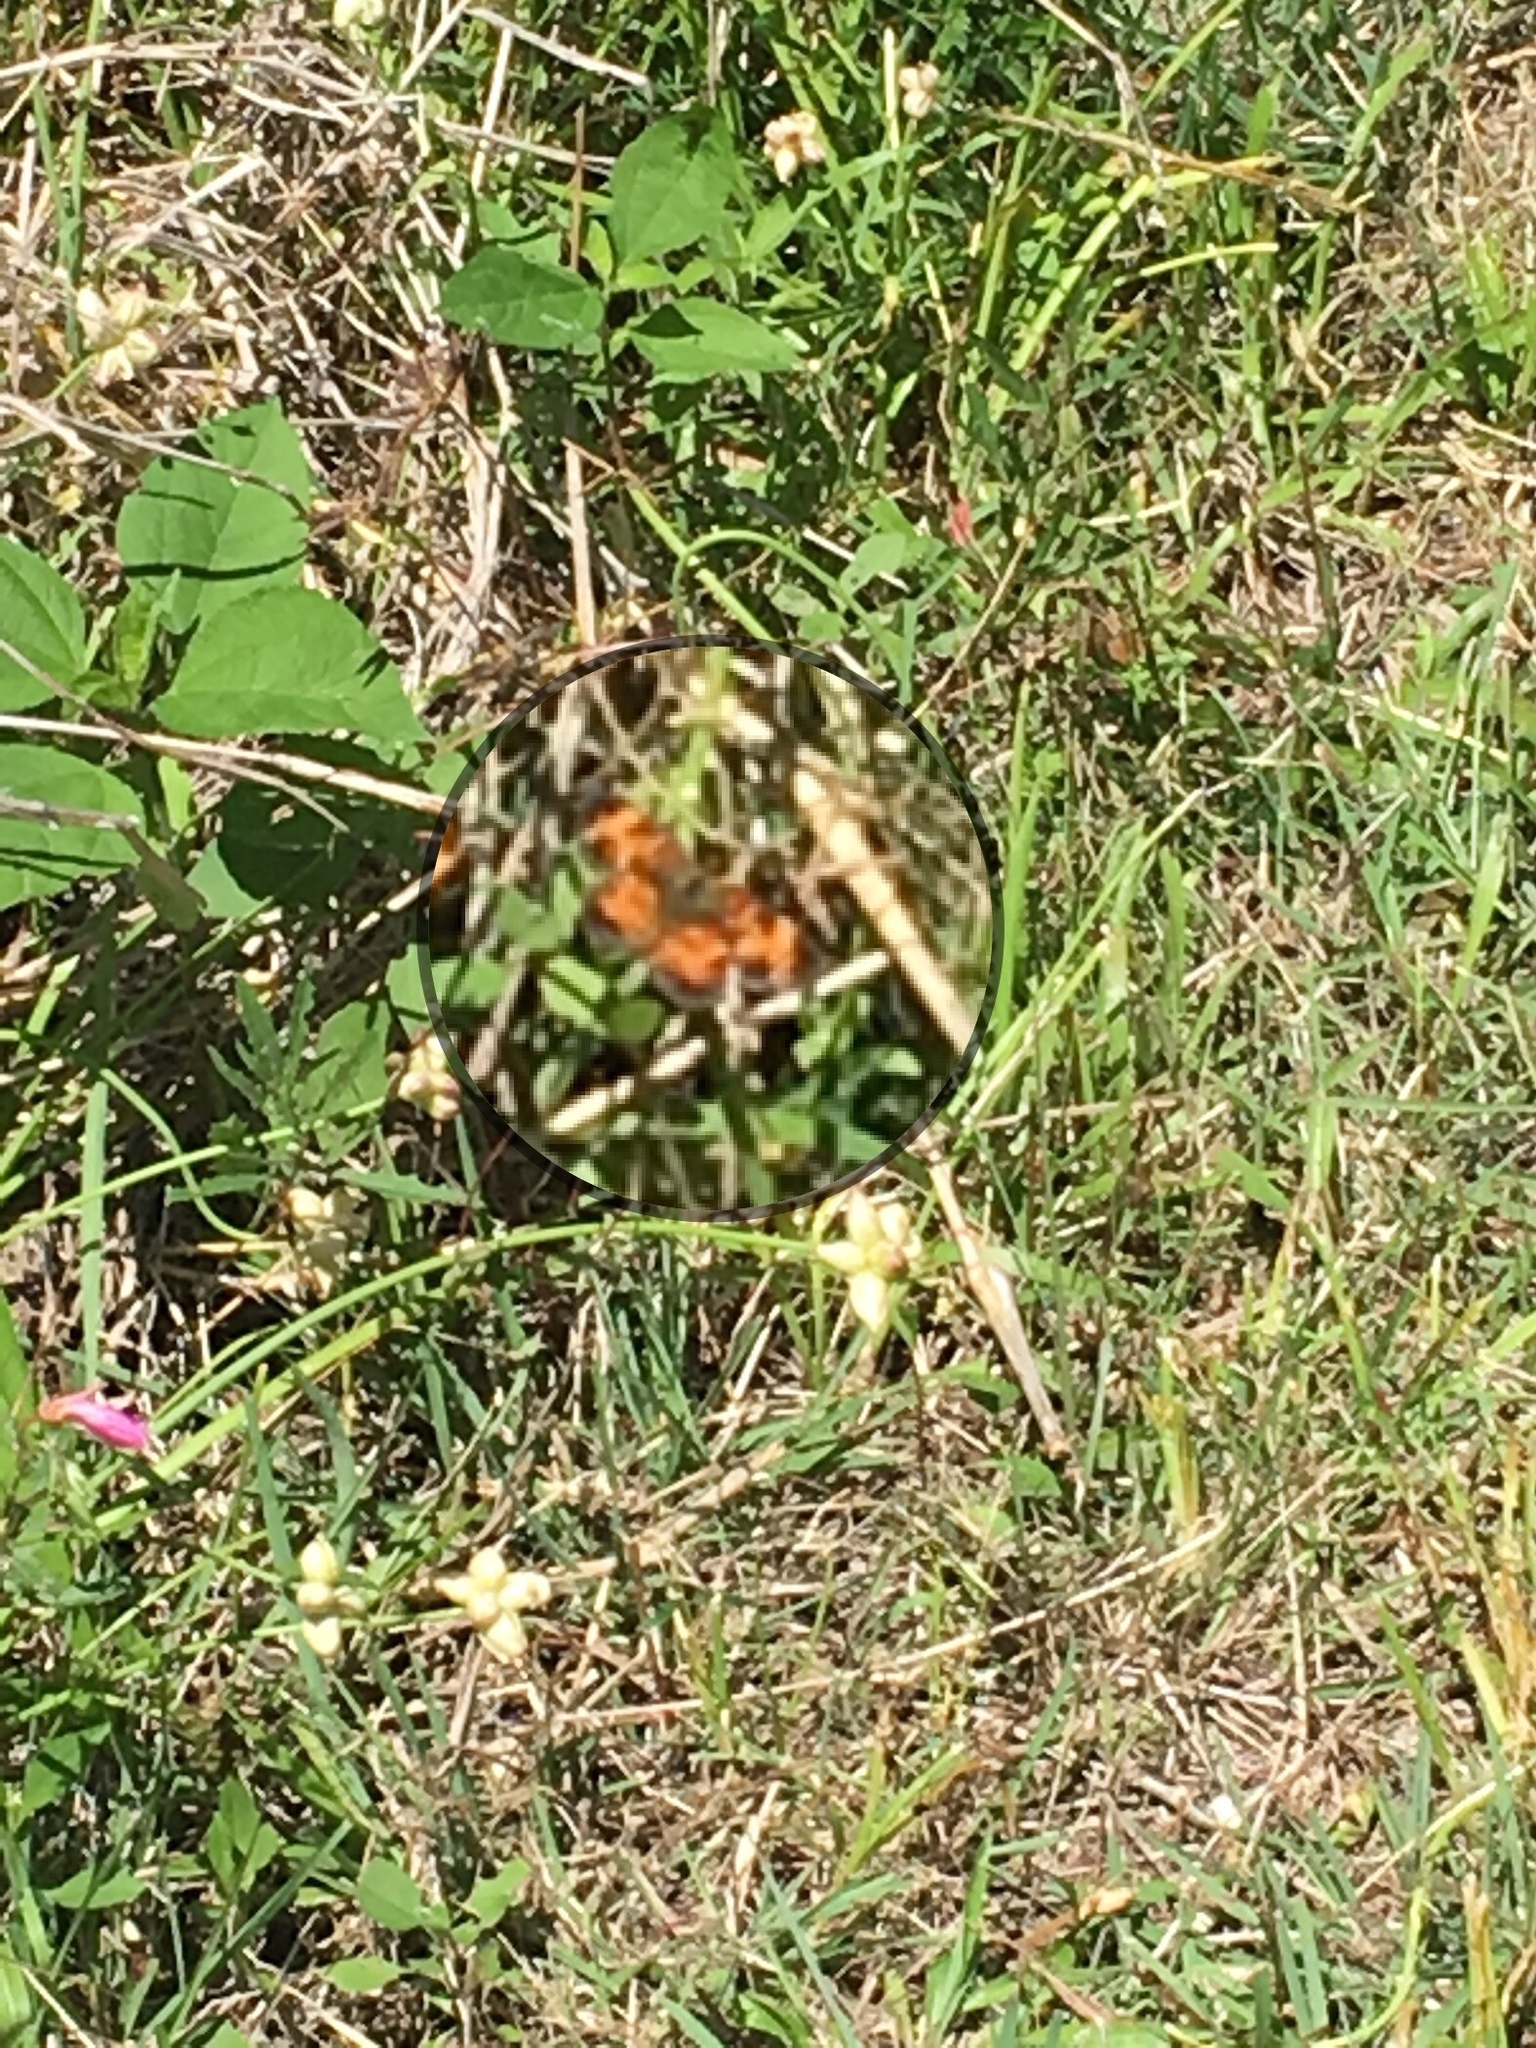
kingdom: Animalia
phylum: Arthropoda
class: Insecta
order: Lepidoptera
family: Nymphalidae
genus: Phyciodes
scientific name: Phyciodes tharos
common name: Pearl crescent
